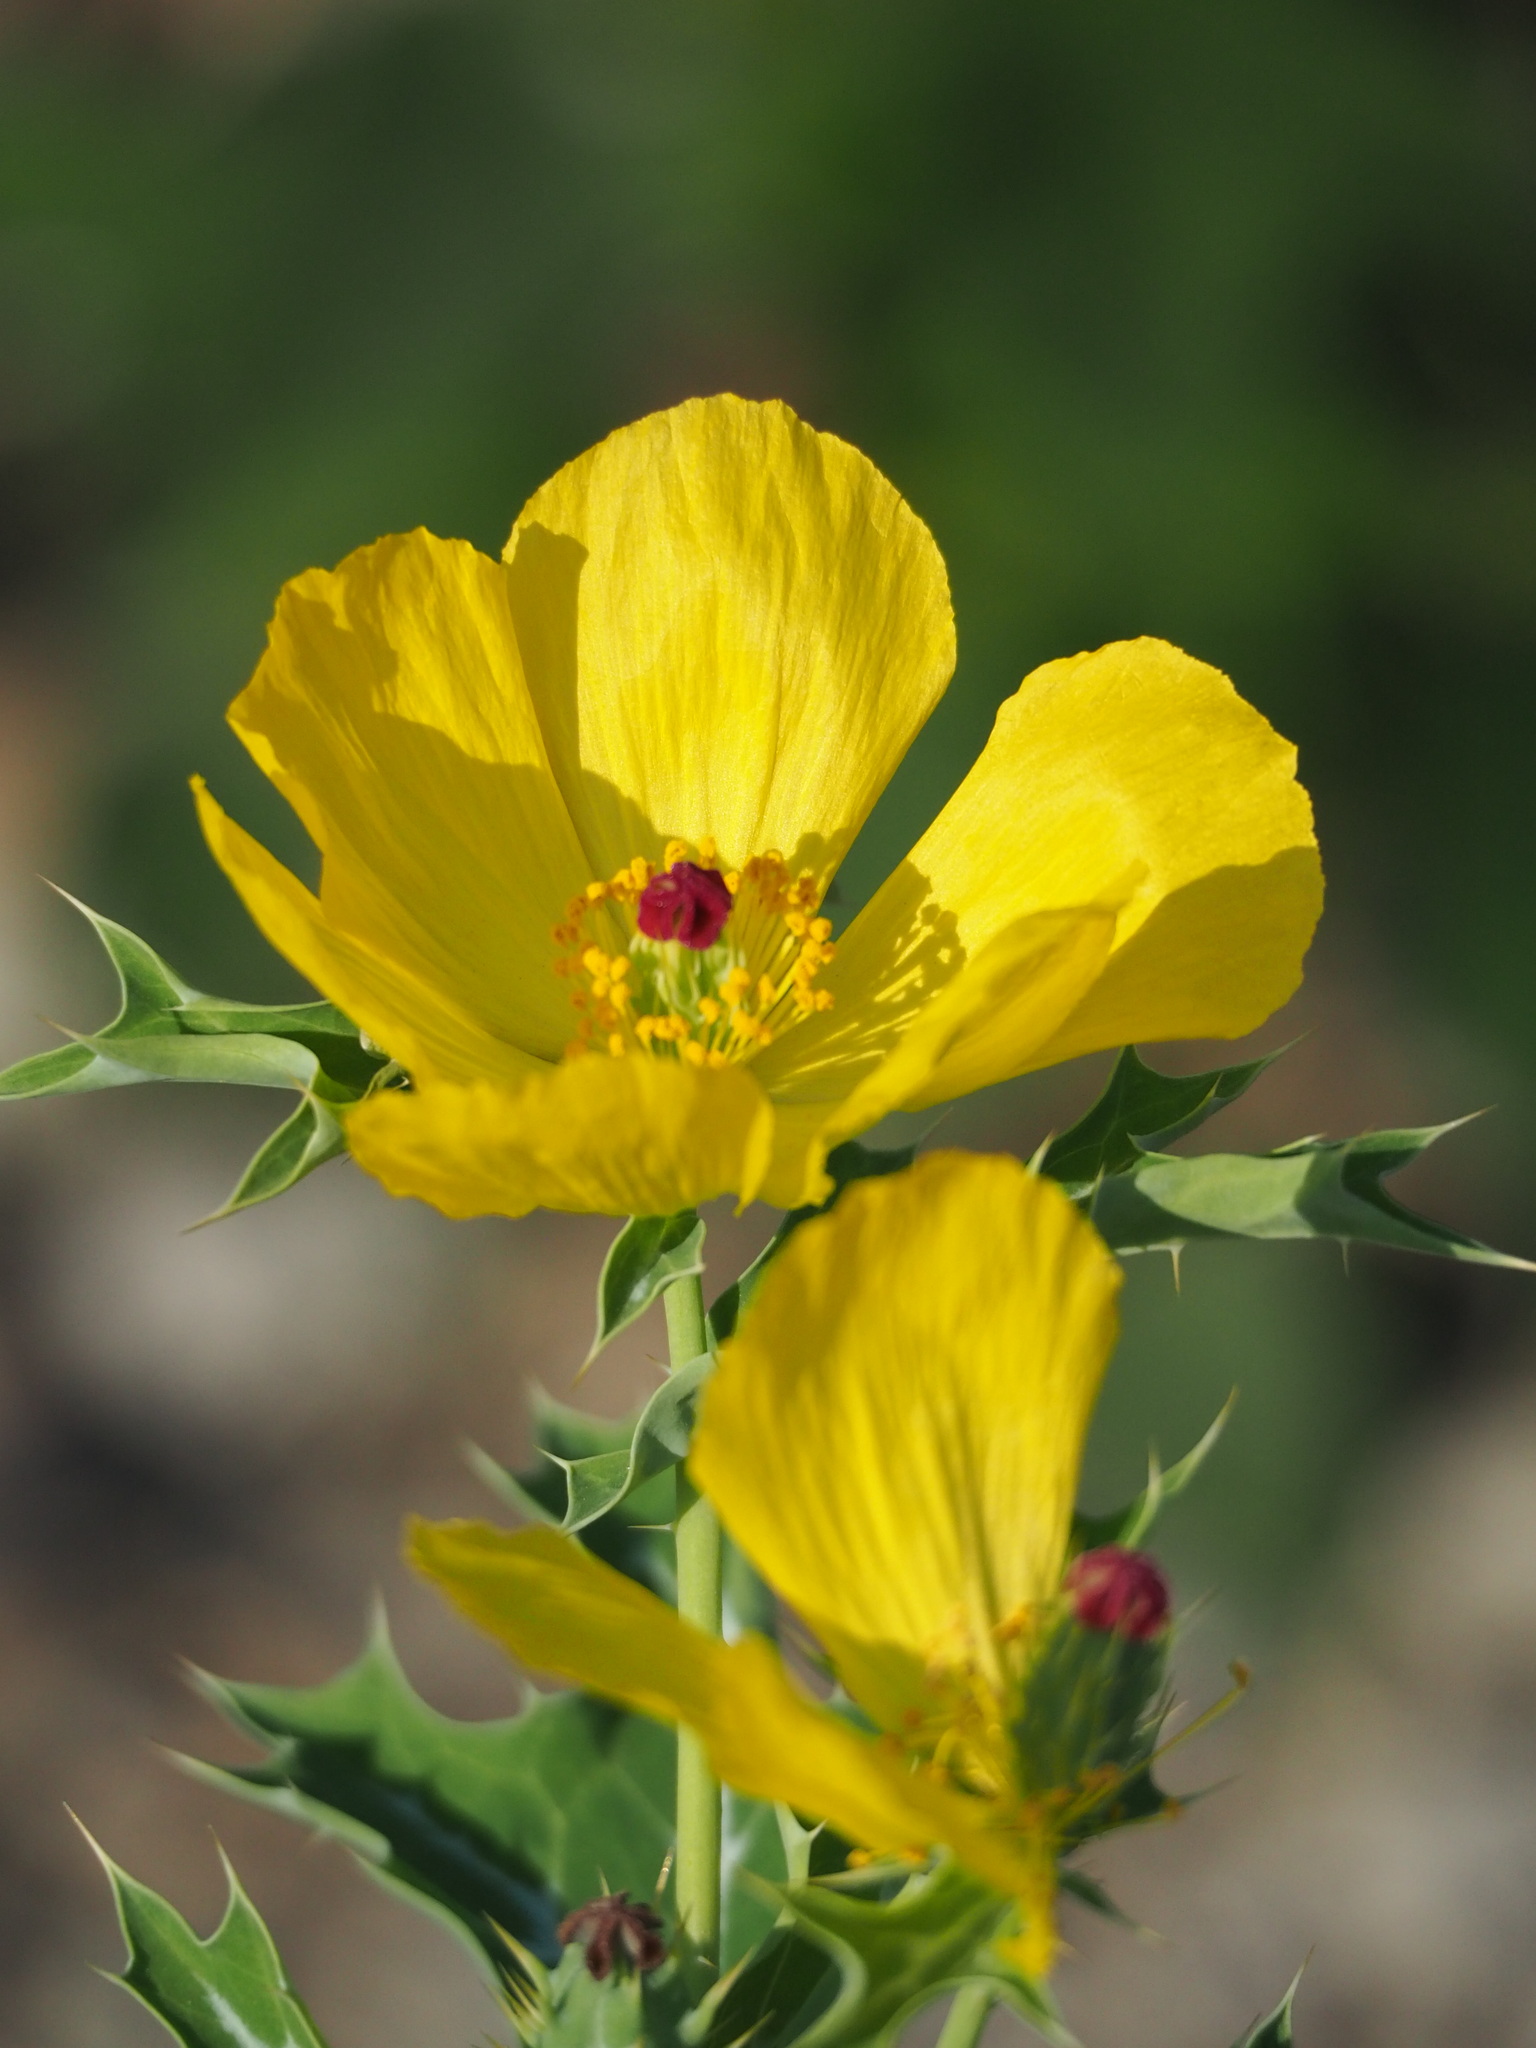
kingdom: Plantae
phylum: Tracheophyta
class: Magnoliopsida
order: Ranunculales
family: Papaveraceae
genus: Argemone
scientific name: Argemone mexicana
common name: Mexican poppy
